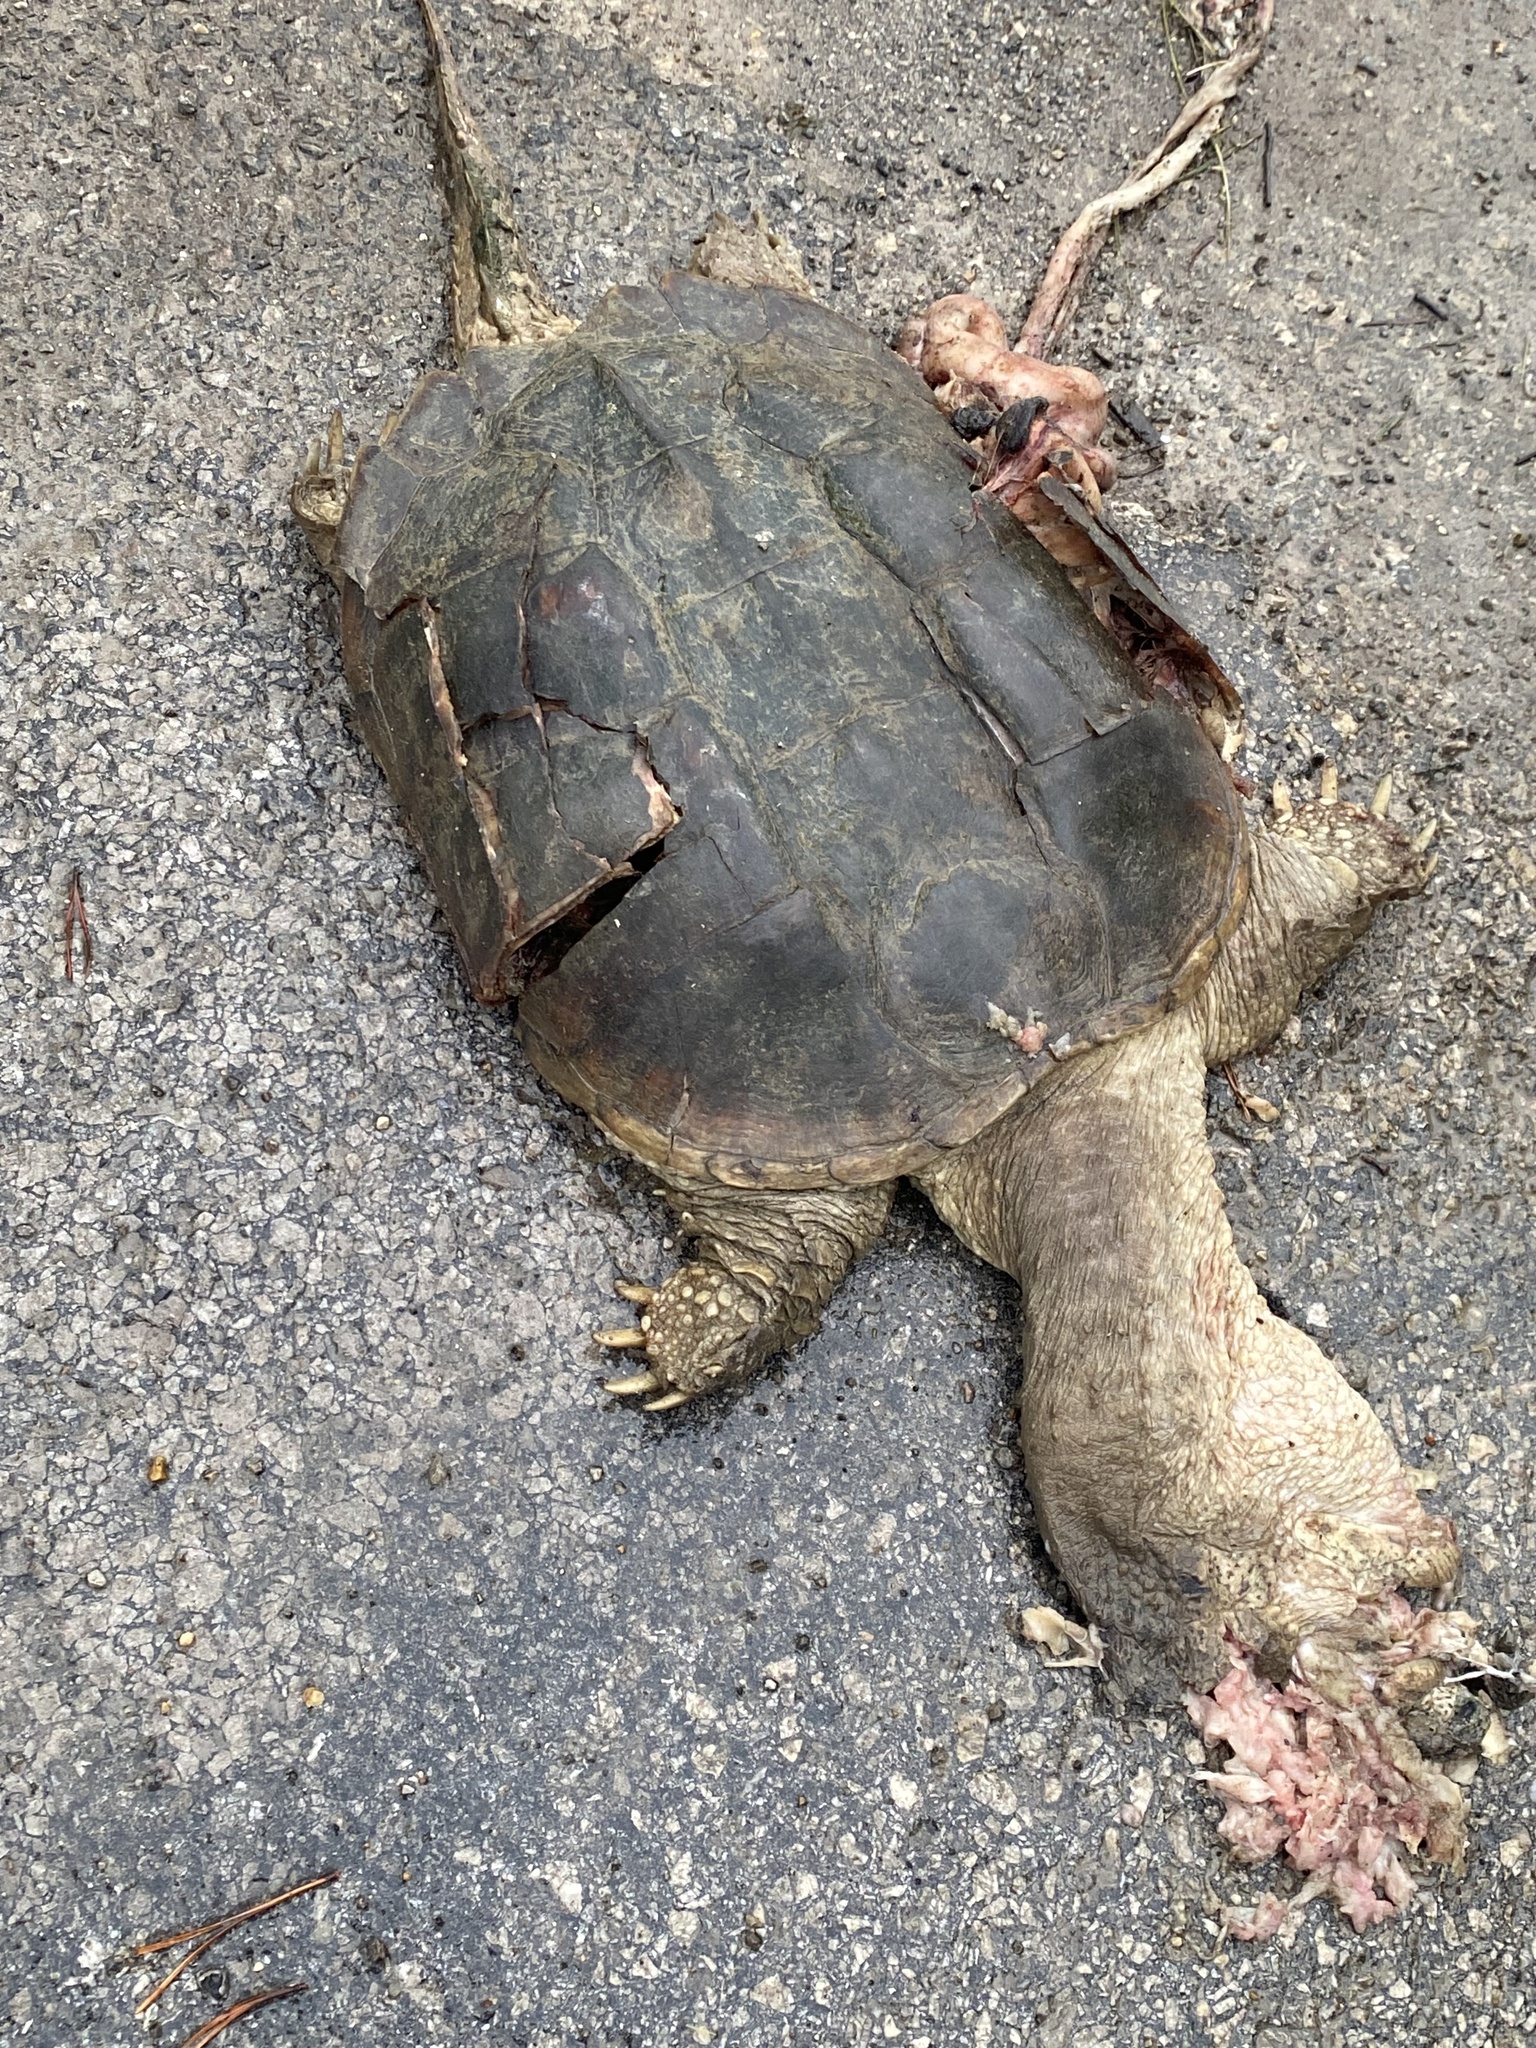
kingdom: Animalia
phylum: Chordata
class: Testudines
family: Chelydridae
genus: Chelydra
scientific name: Chelydra serpentina
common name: Common snapping turtle
